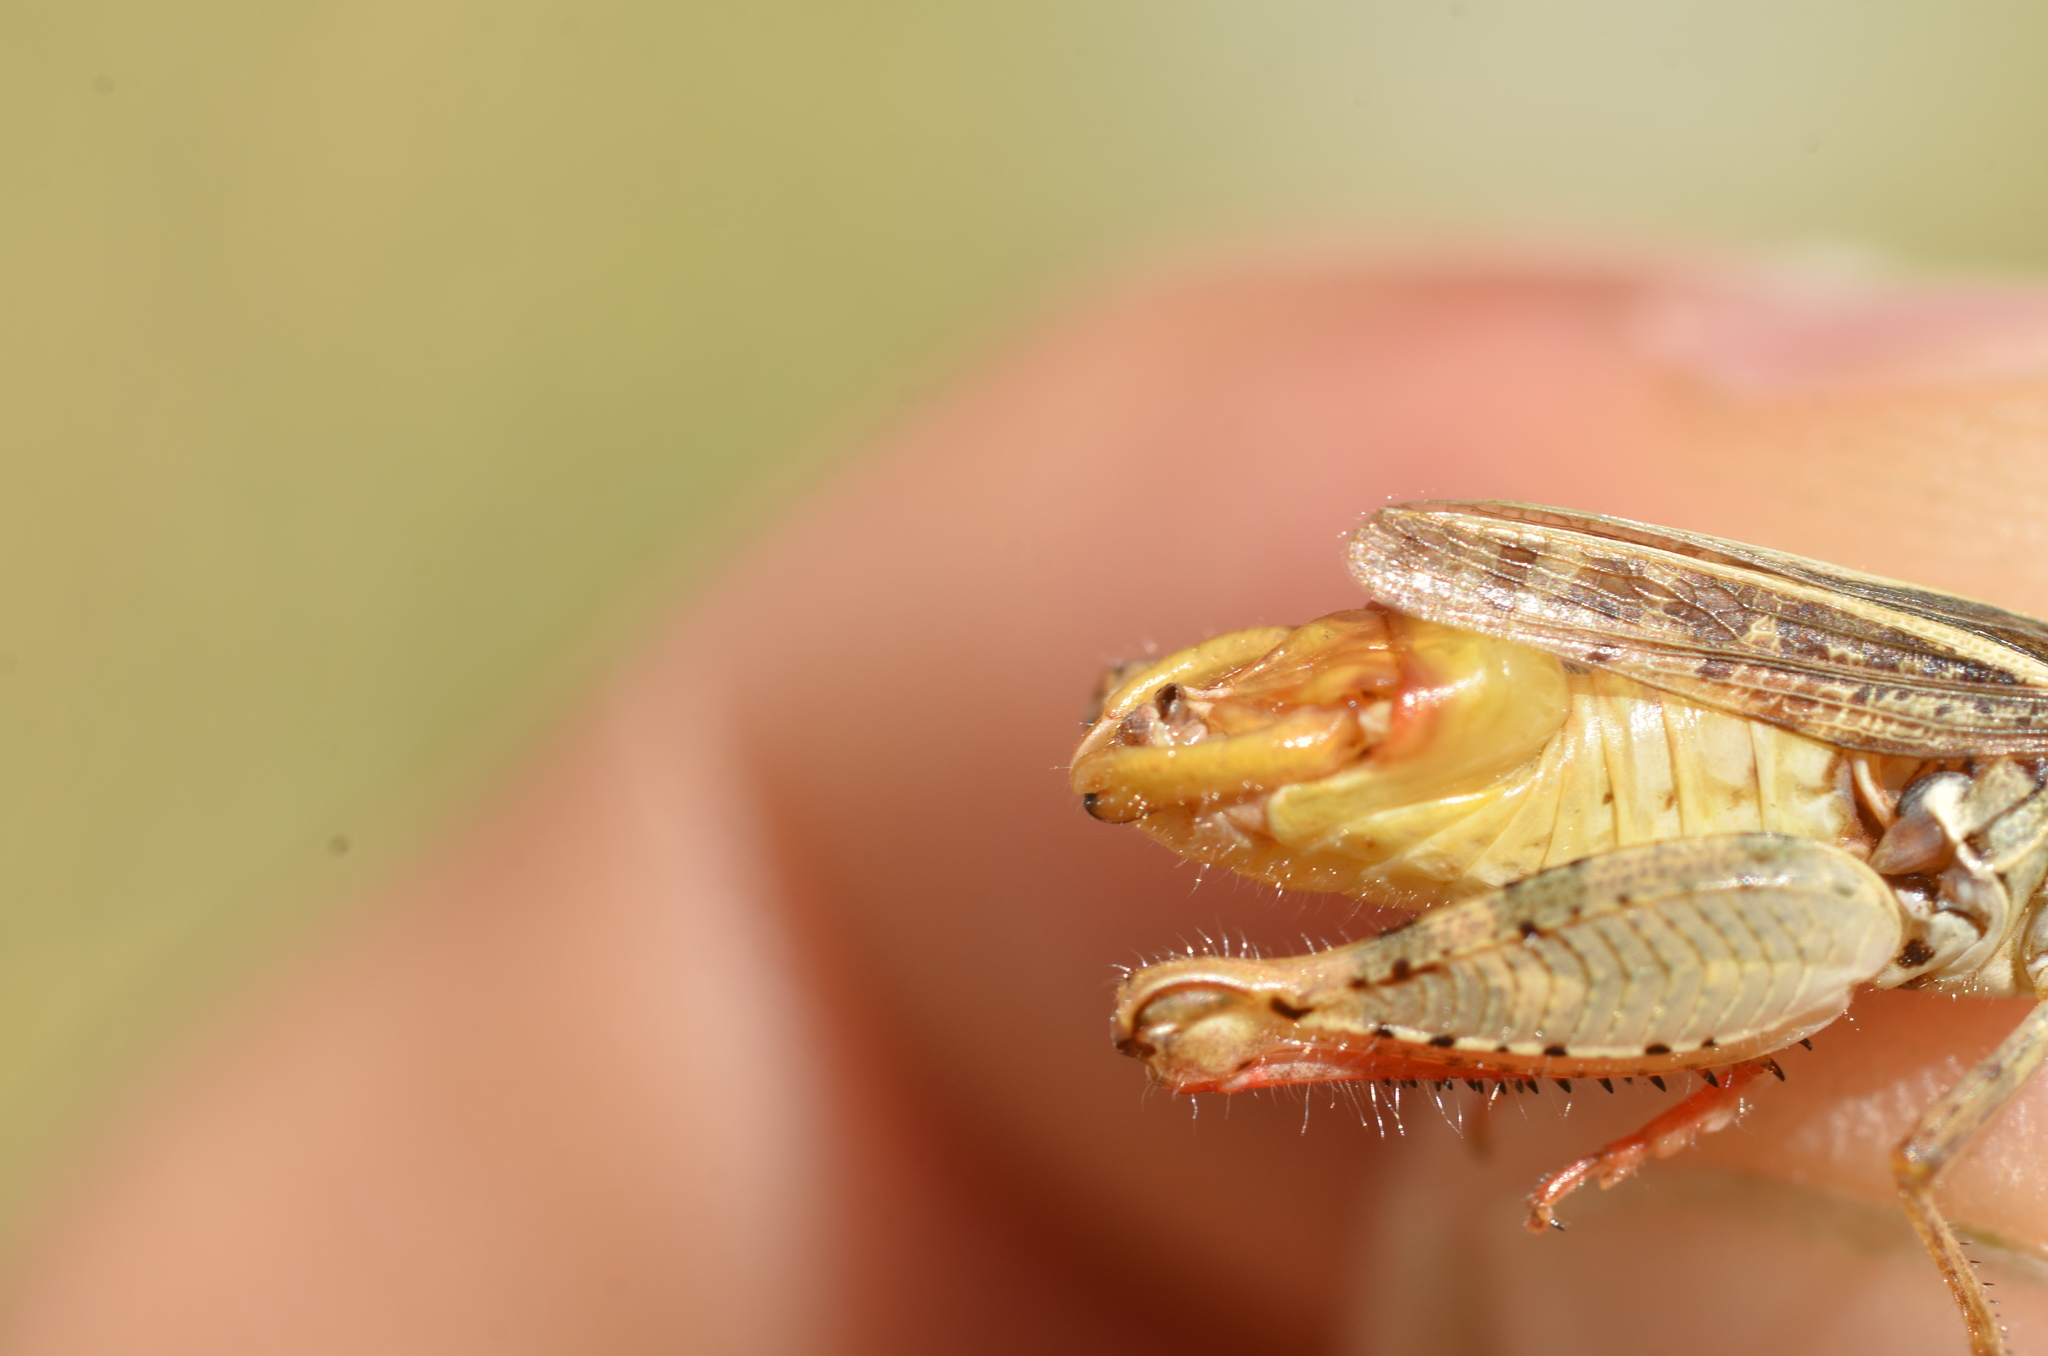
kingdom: Animalia
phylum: Arthropoda
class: Insecta
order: Orthoptera
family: Acrididae
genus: Calliptamus
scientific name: Calliptamus siciliae
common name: Pygmy pincer grasshopper
